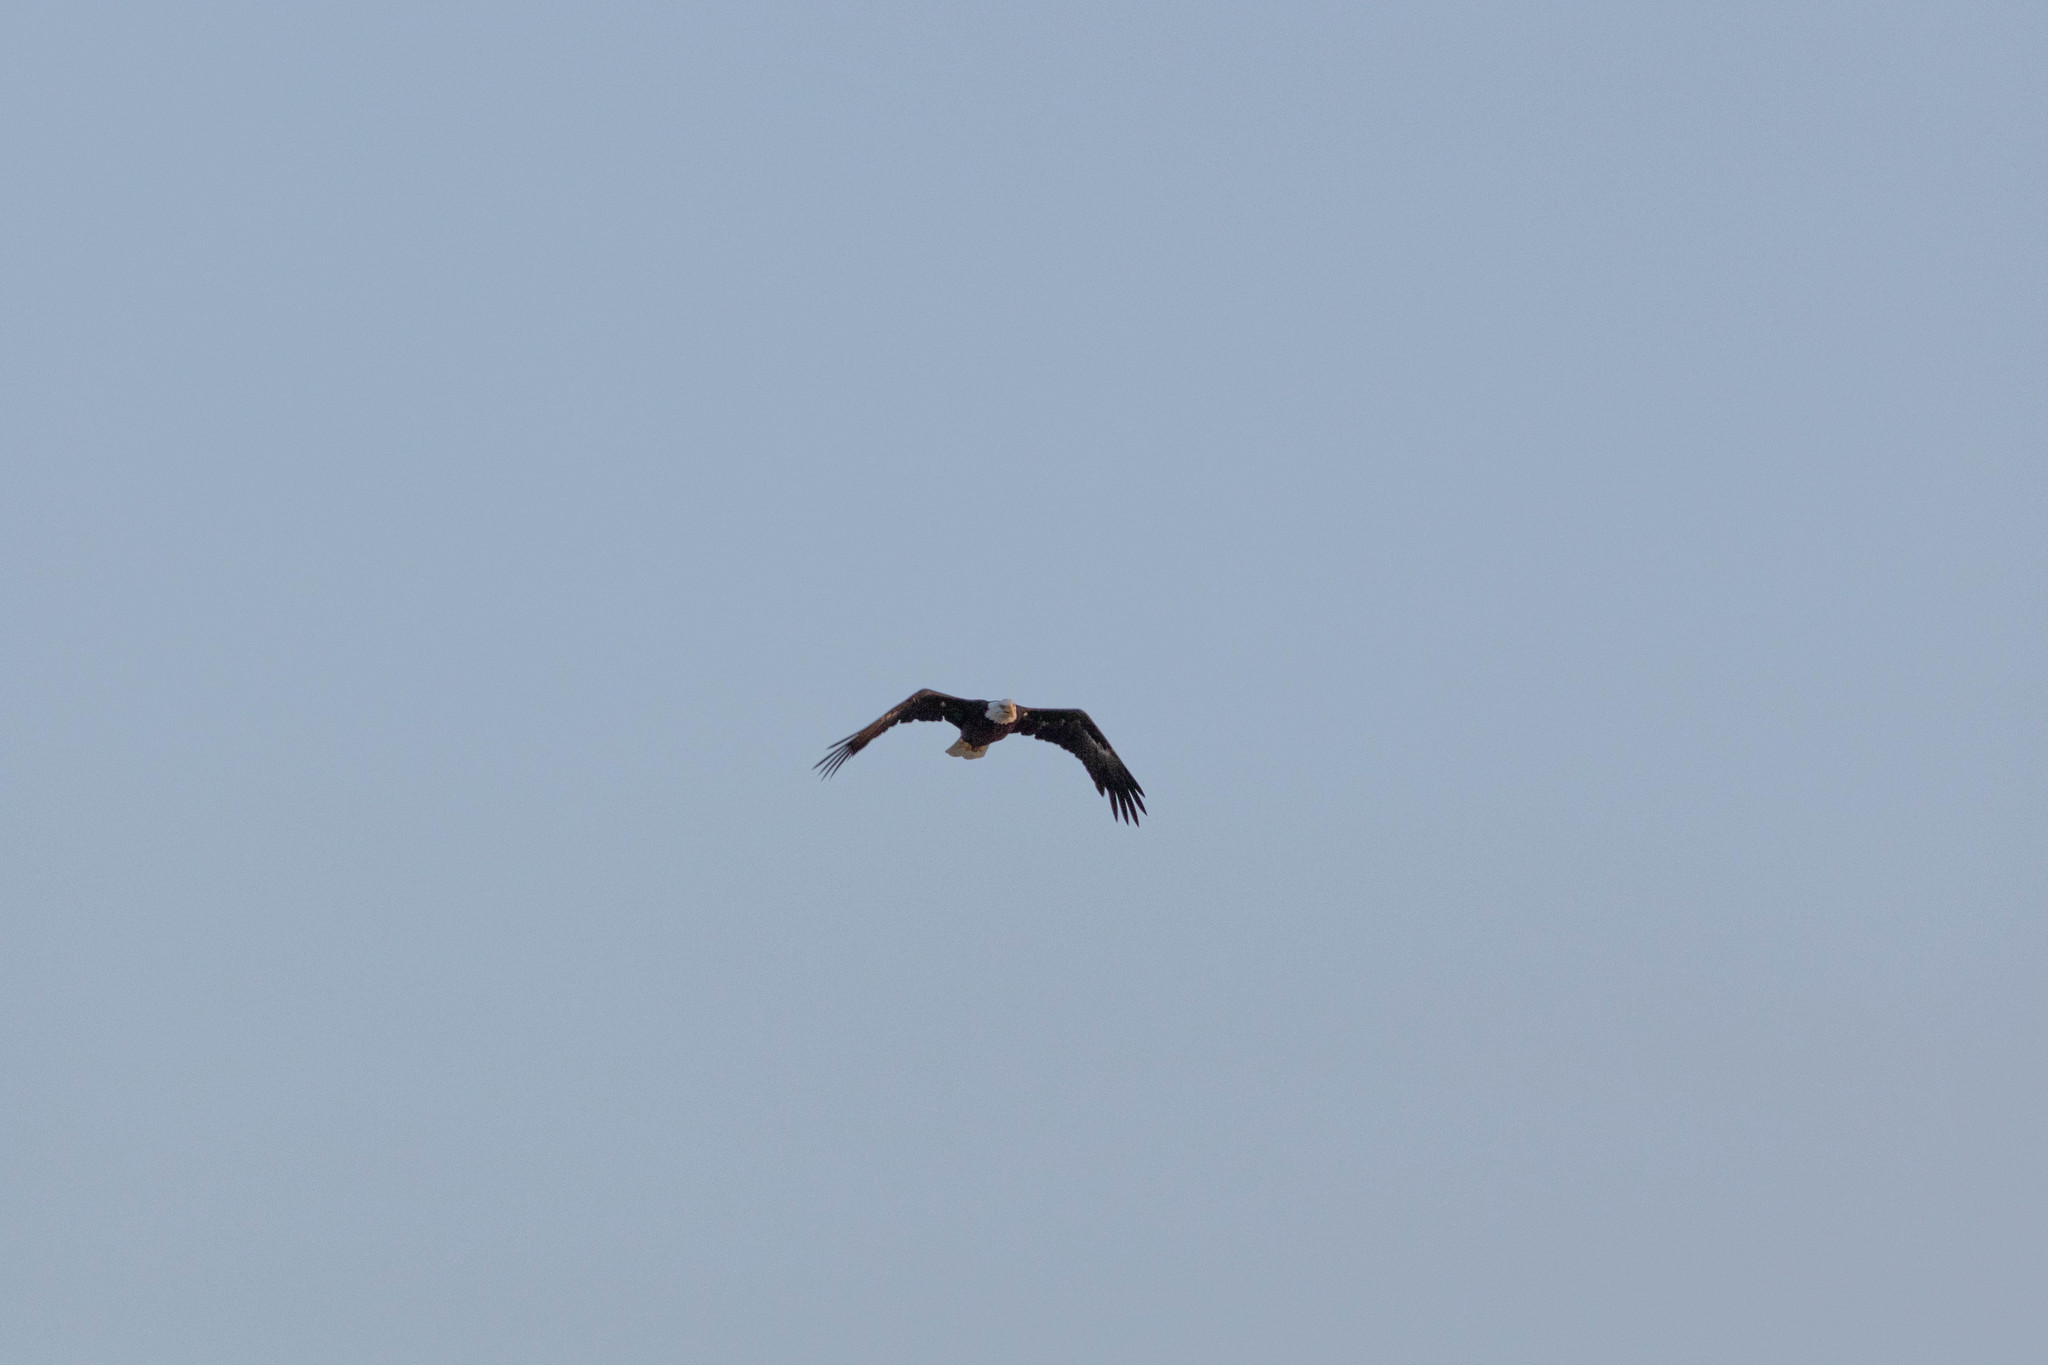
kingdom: Animalia
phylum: Chordata
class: Aves
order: Accipitriformes
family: Accipitridae
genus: Haliaeetus
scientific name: Haliaeetus leucocephalus
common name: Bald eagle
